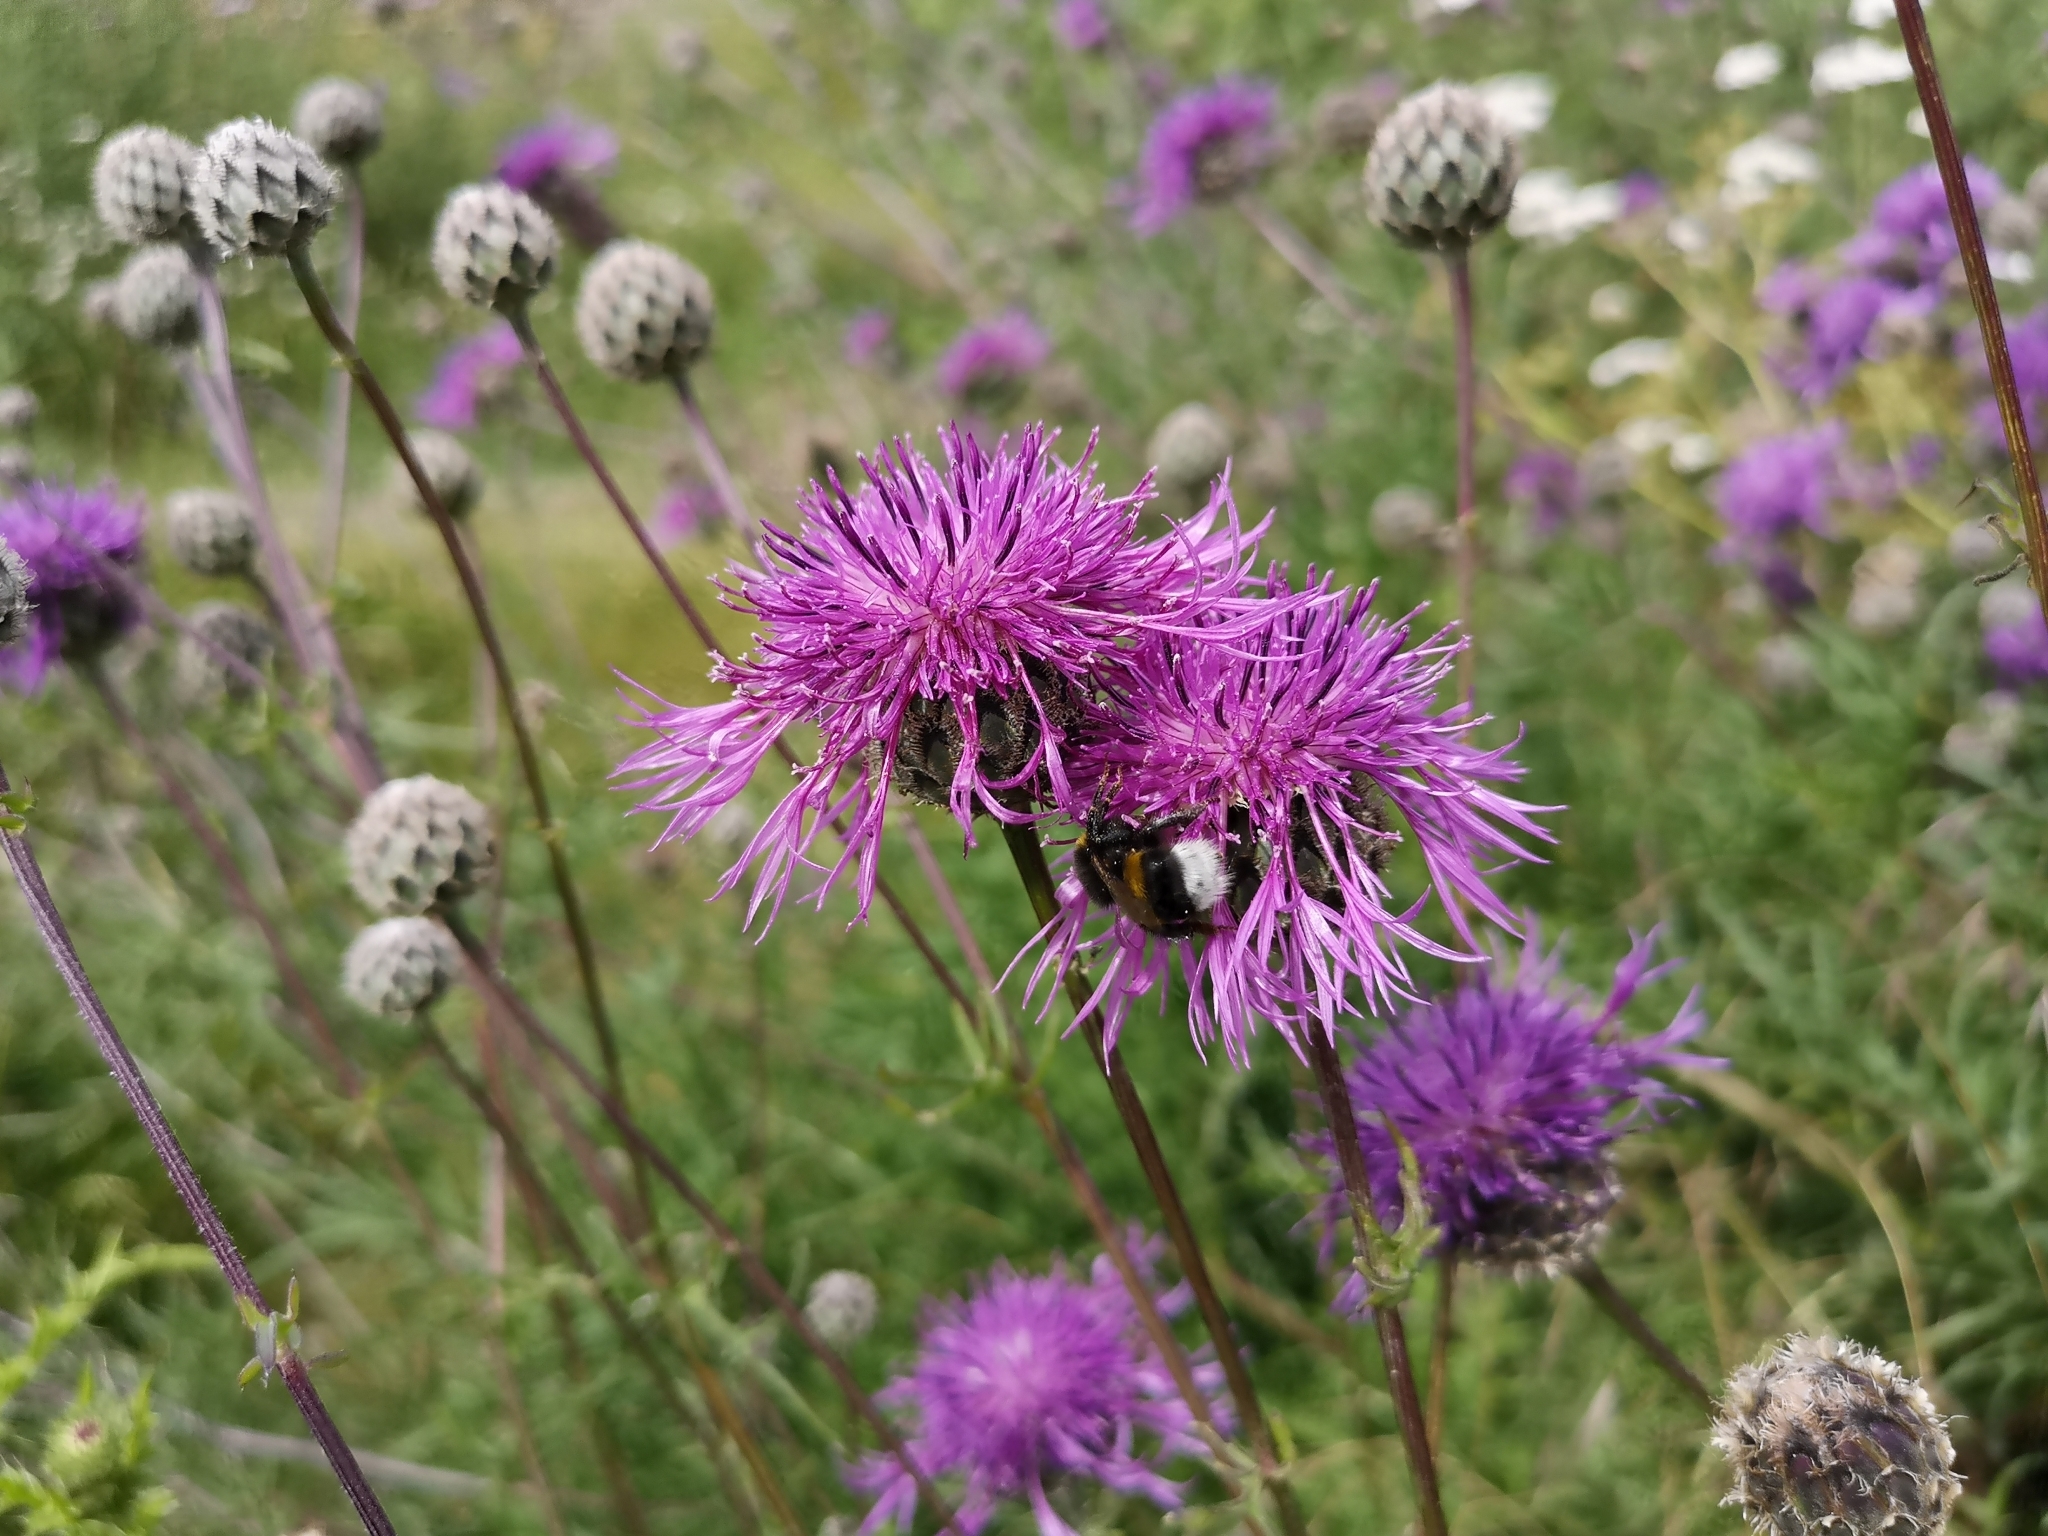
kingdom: Plantae
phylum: Tracheophyta
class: Magnoliopsida
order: Asterales
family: Asteraceae
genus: Centaurea
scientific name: Centaurea scabiosa
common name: Greater knapweed
